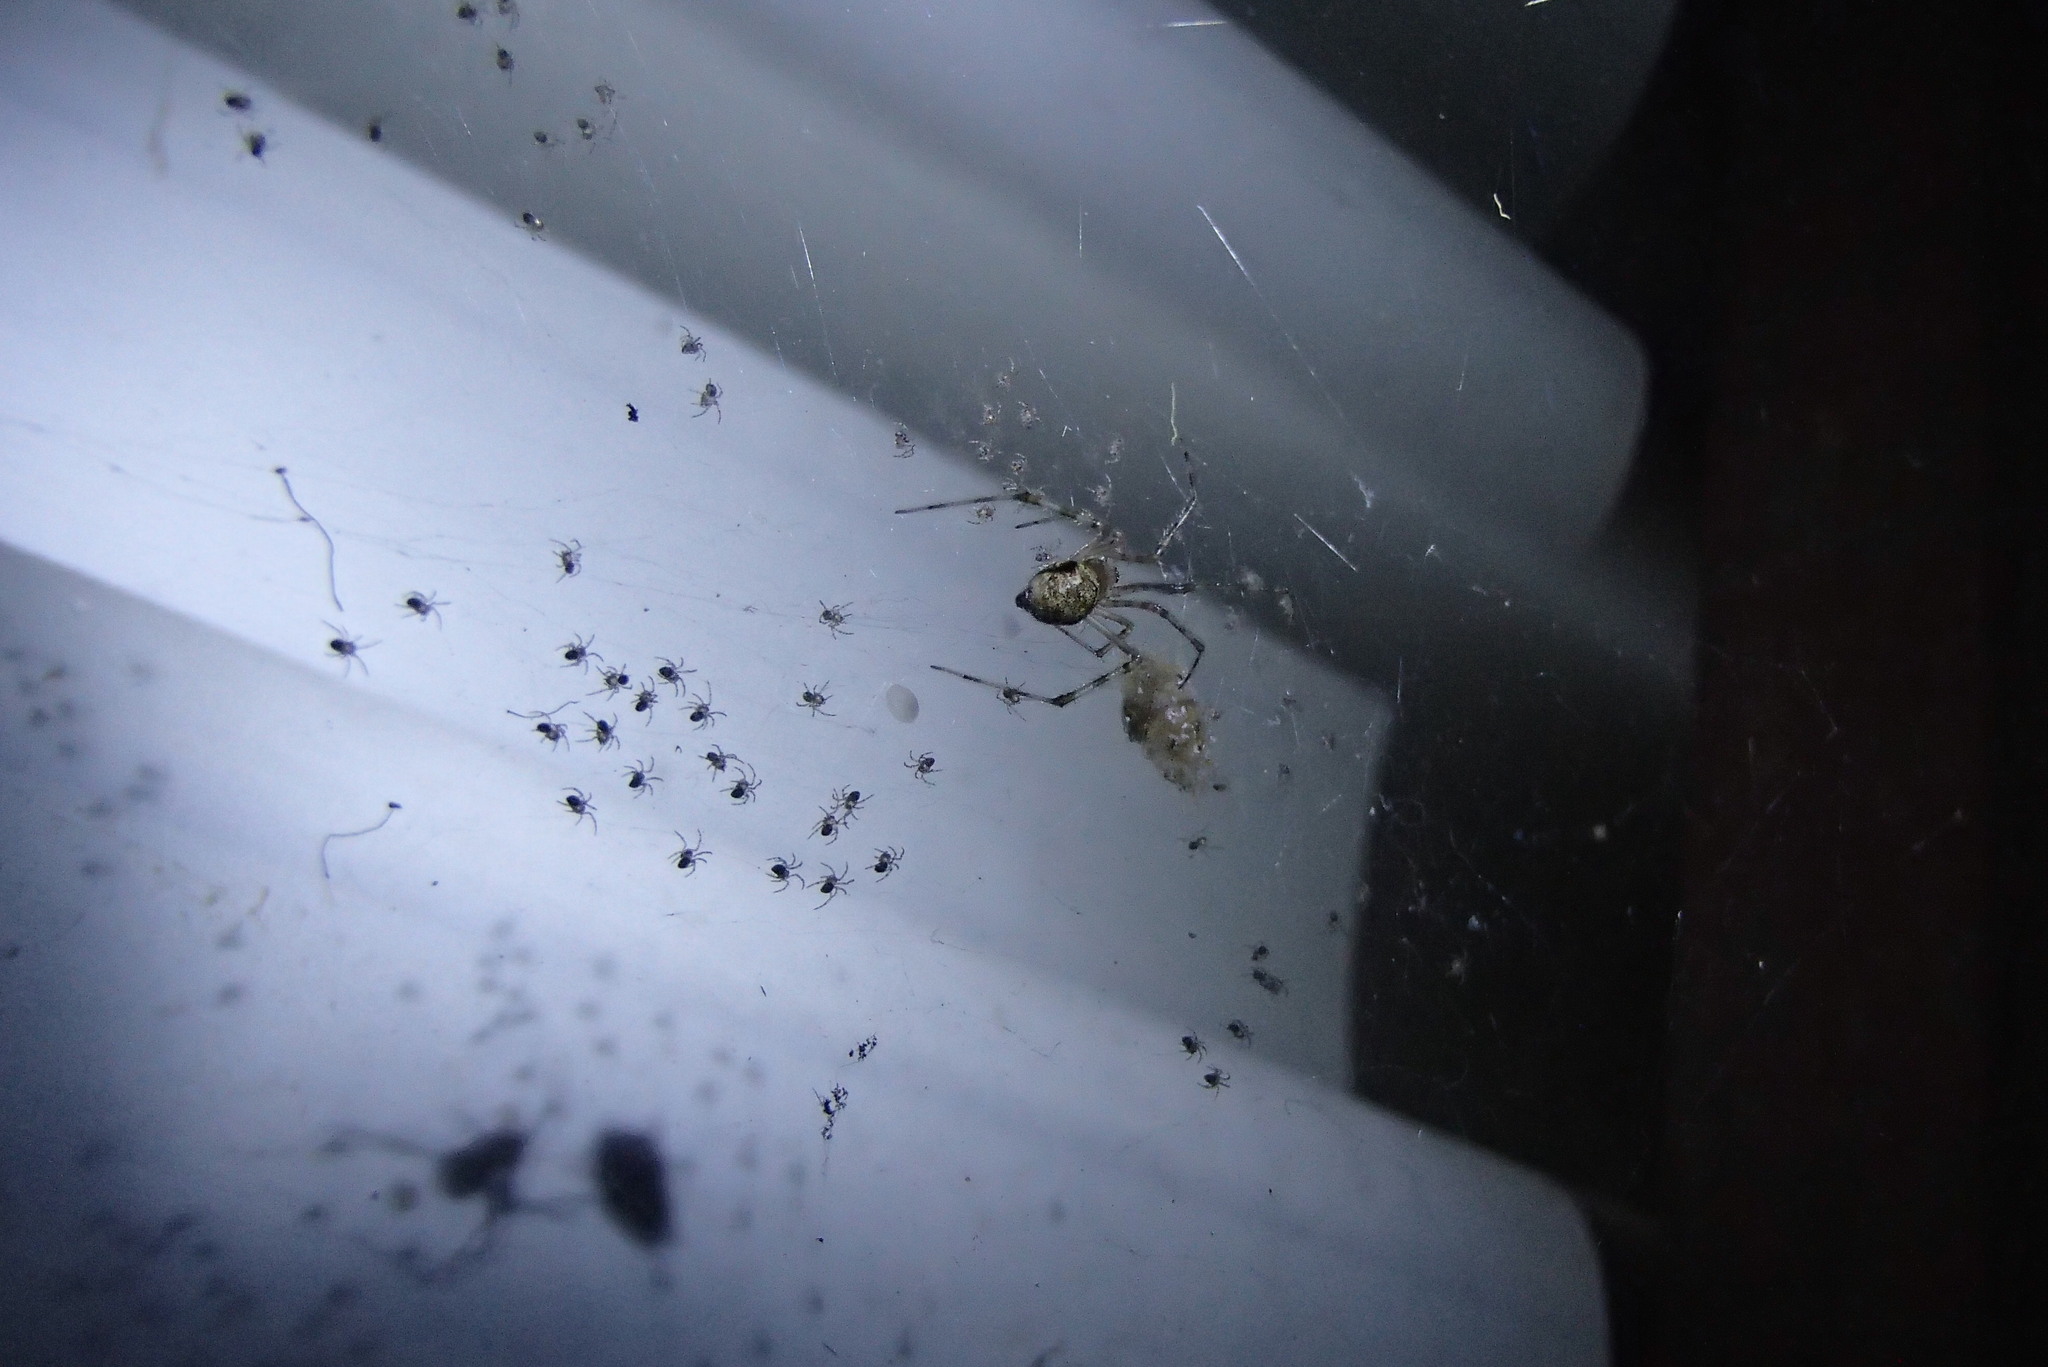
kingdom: Animalia
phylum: Arthropoda
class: Arachnida
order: Araneae
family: Theridiidae
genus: Cryptachaea
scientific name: Cryptachaea gigantipes
